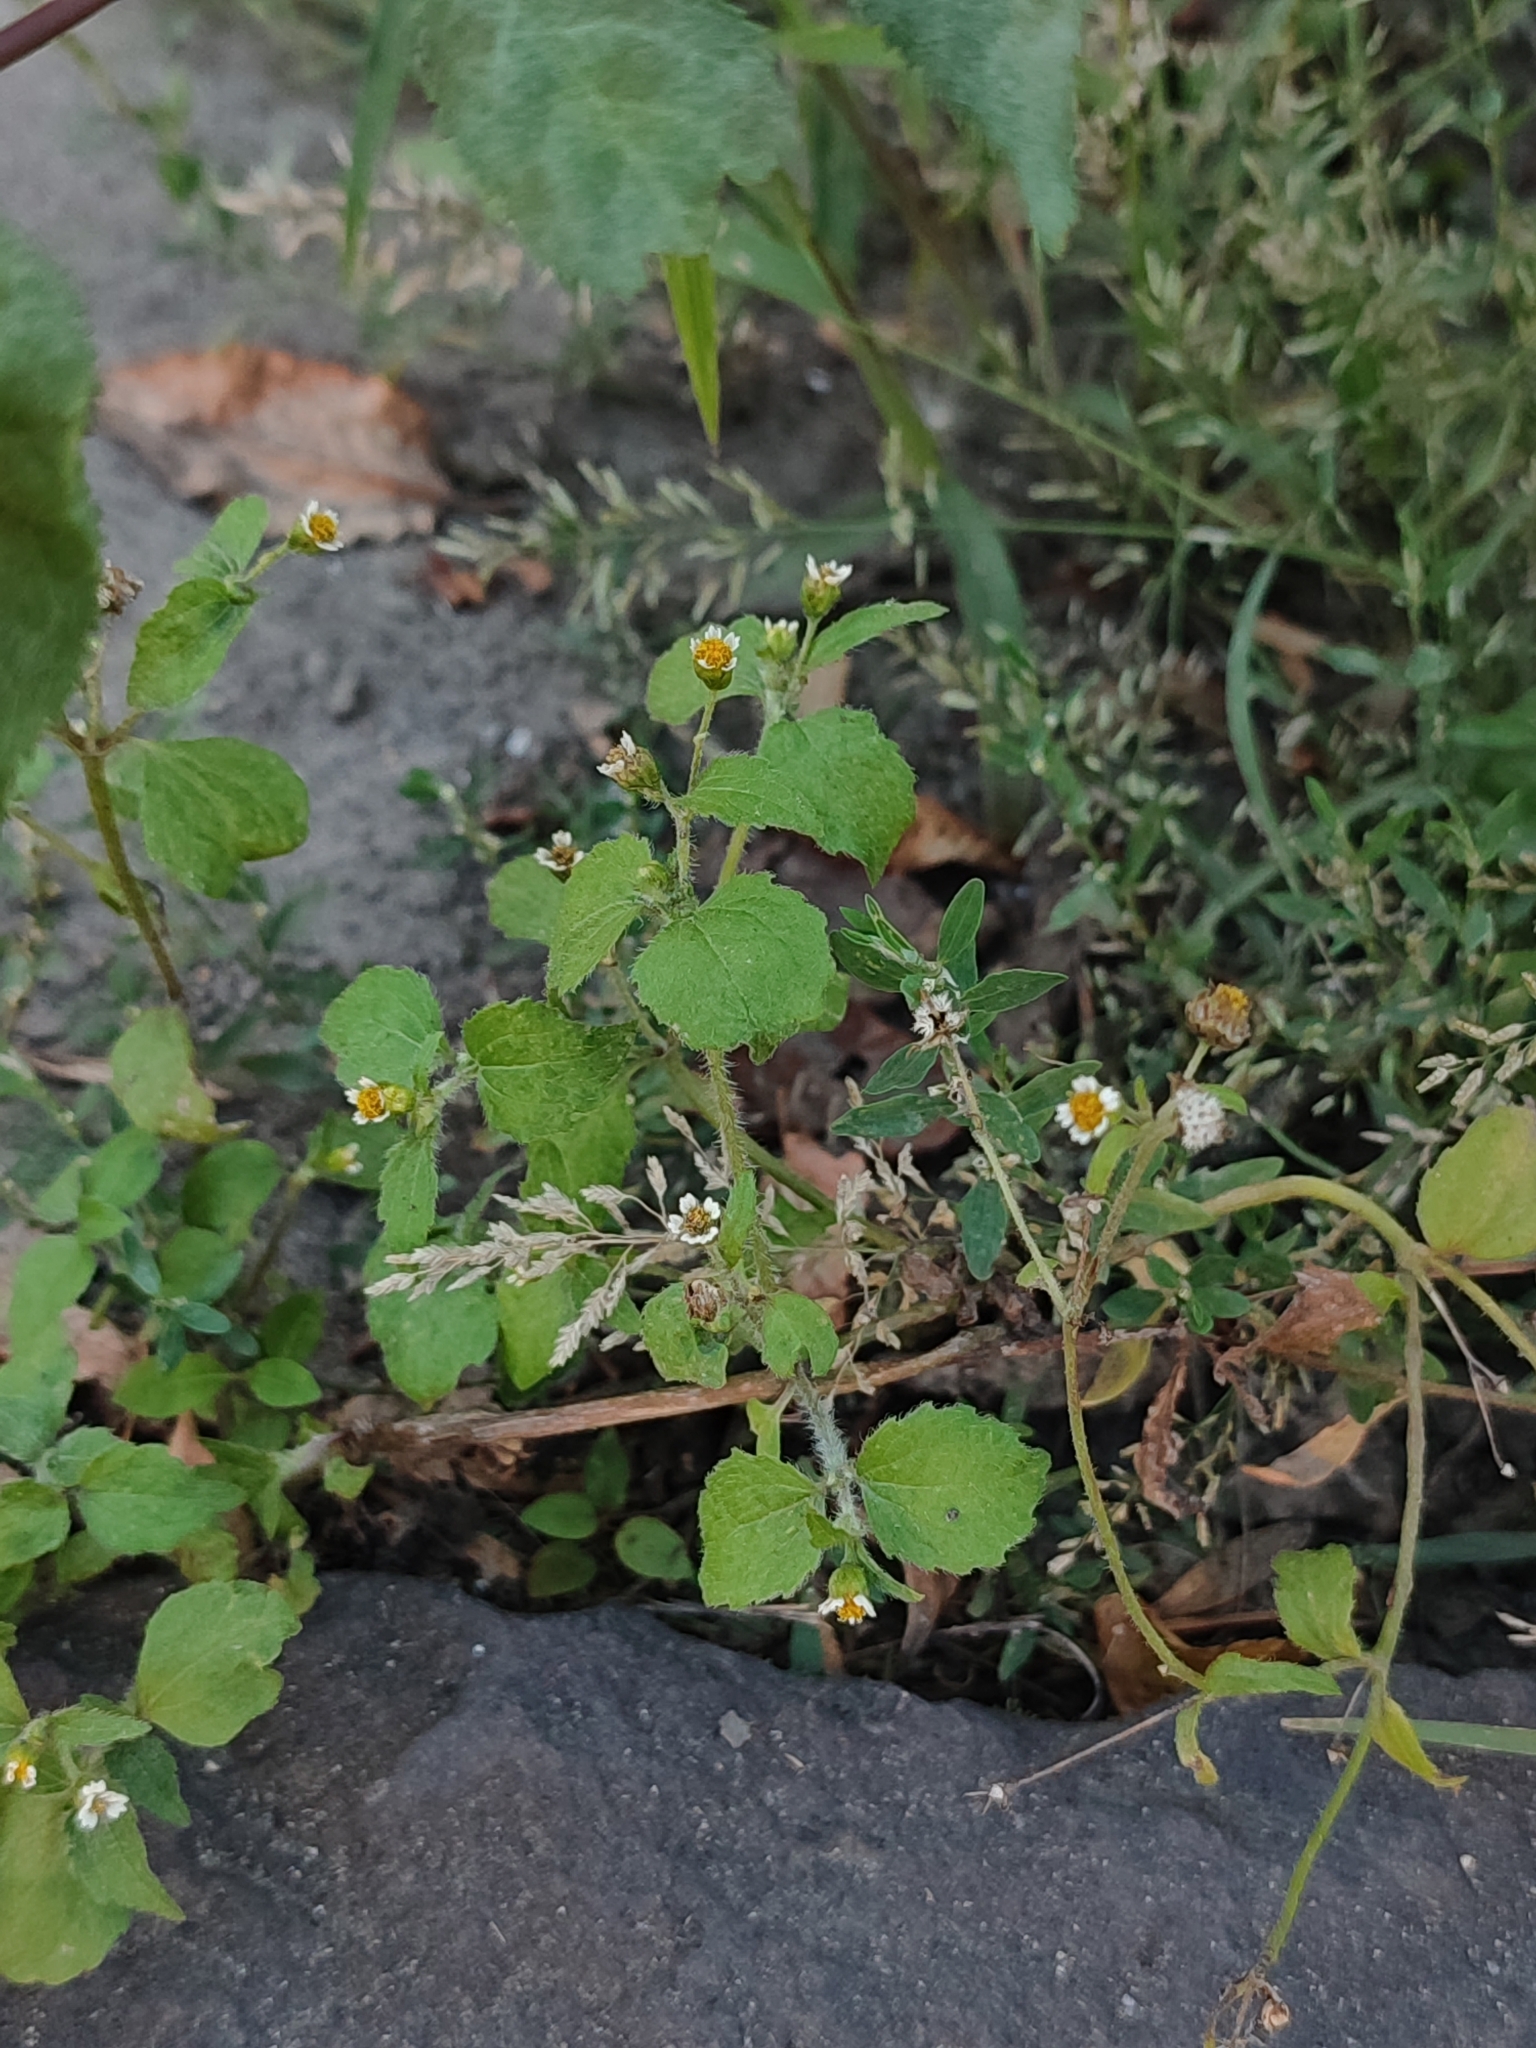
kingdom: Plantae
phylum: Tracheophyta
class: Magnoliopsida
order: Asterales
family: Asteraceae
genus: Galinsoga
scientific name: Galinsoga quadriradiata
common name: Shaggy soldier
